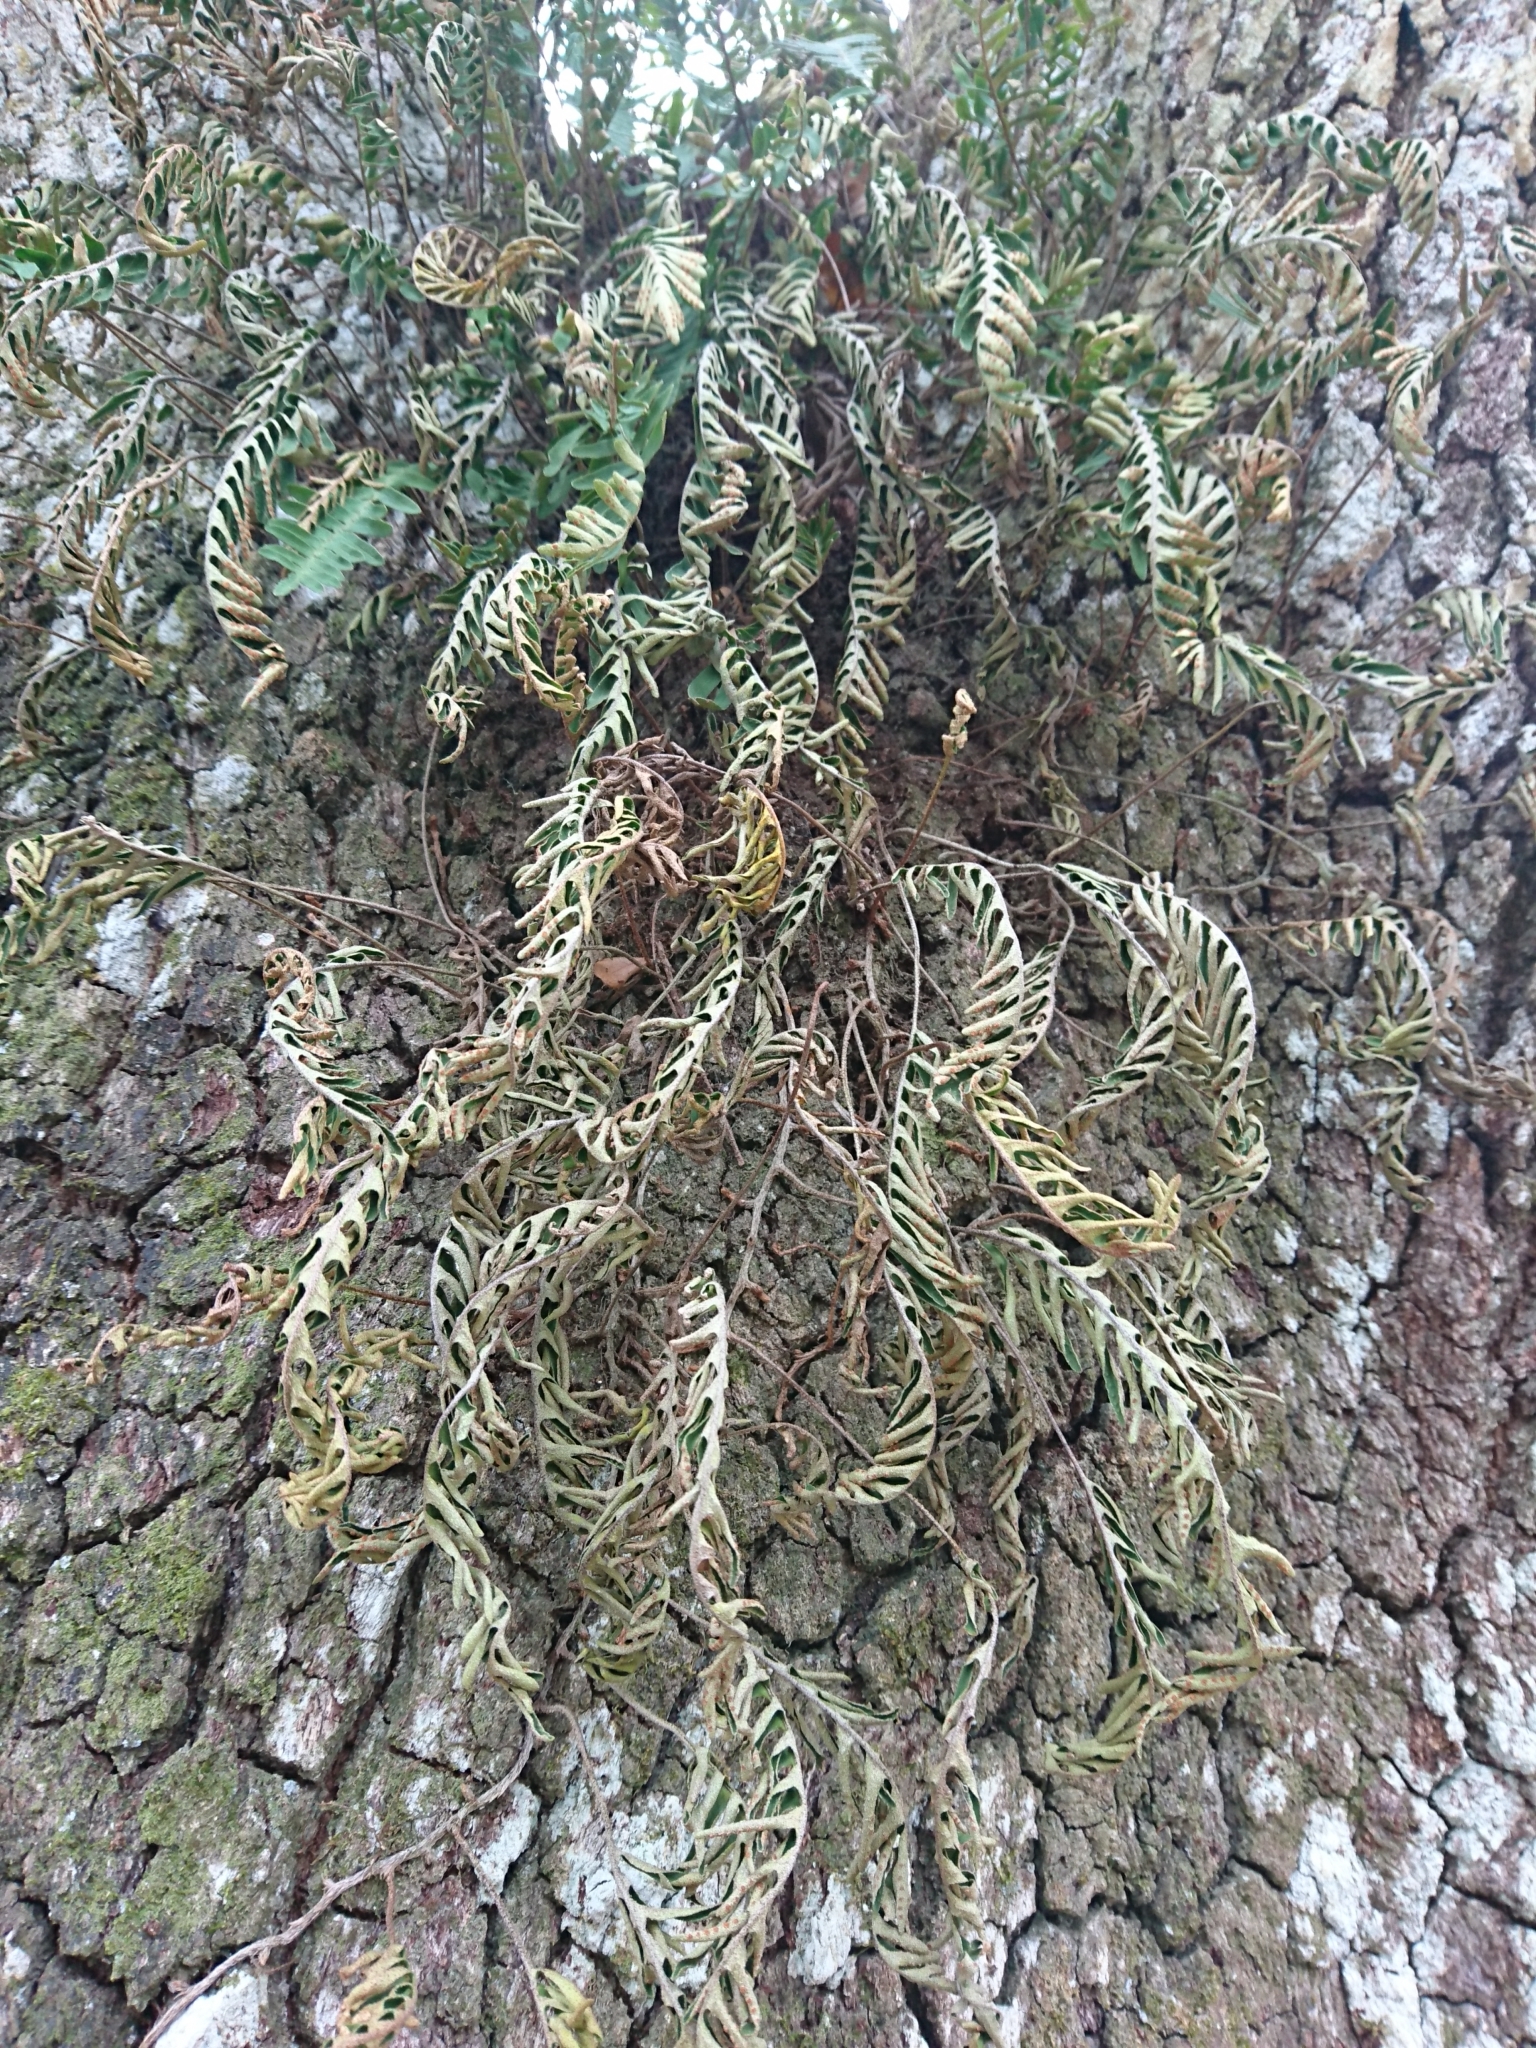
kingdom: Plantae
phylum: Tracheophyta
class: Polypodiopsida
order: Polypodiales
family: Polypodiaceae
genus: Pleopeltis
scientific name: Pleopeltis michauxiana
